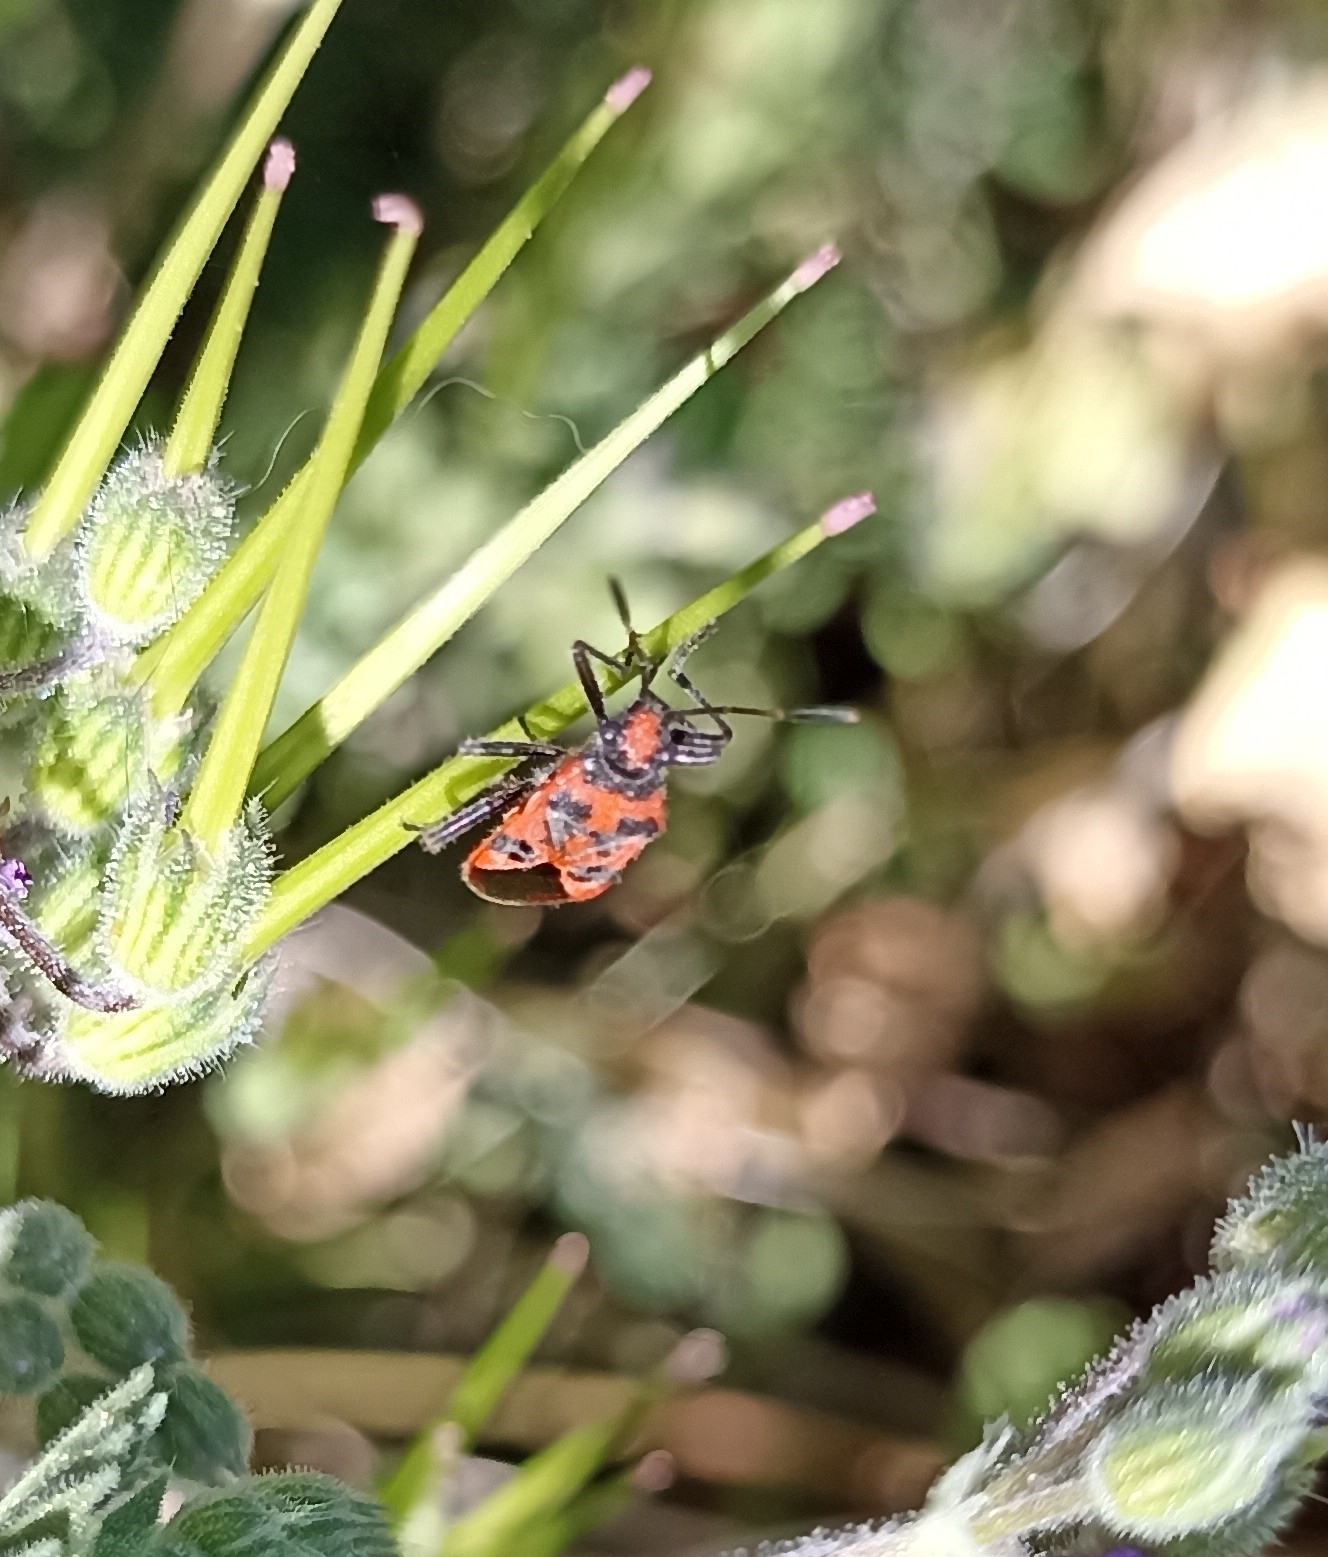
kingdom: Animalia
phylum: Arthropoda
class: Insecta
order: Hemiptera
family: Rhopalidae
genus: Corizus
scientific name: Corizus hyoscyami
